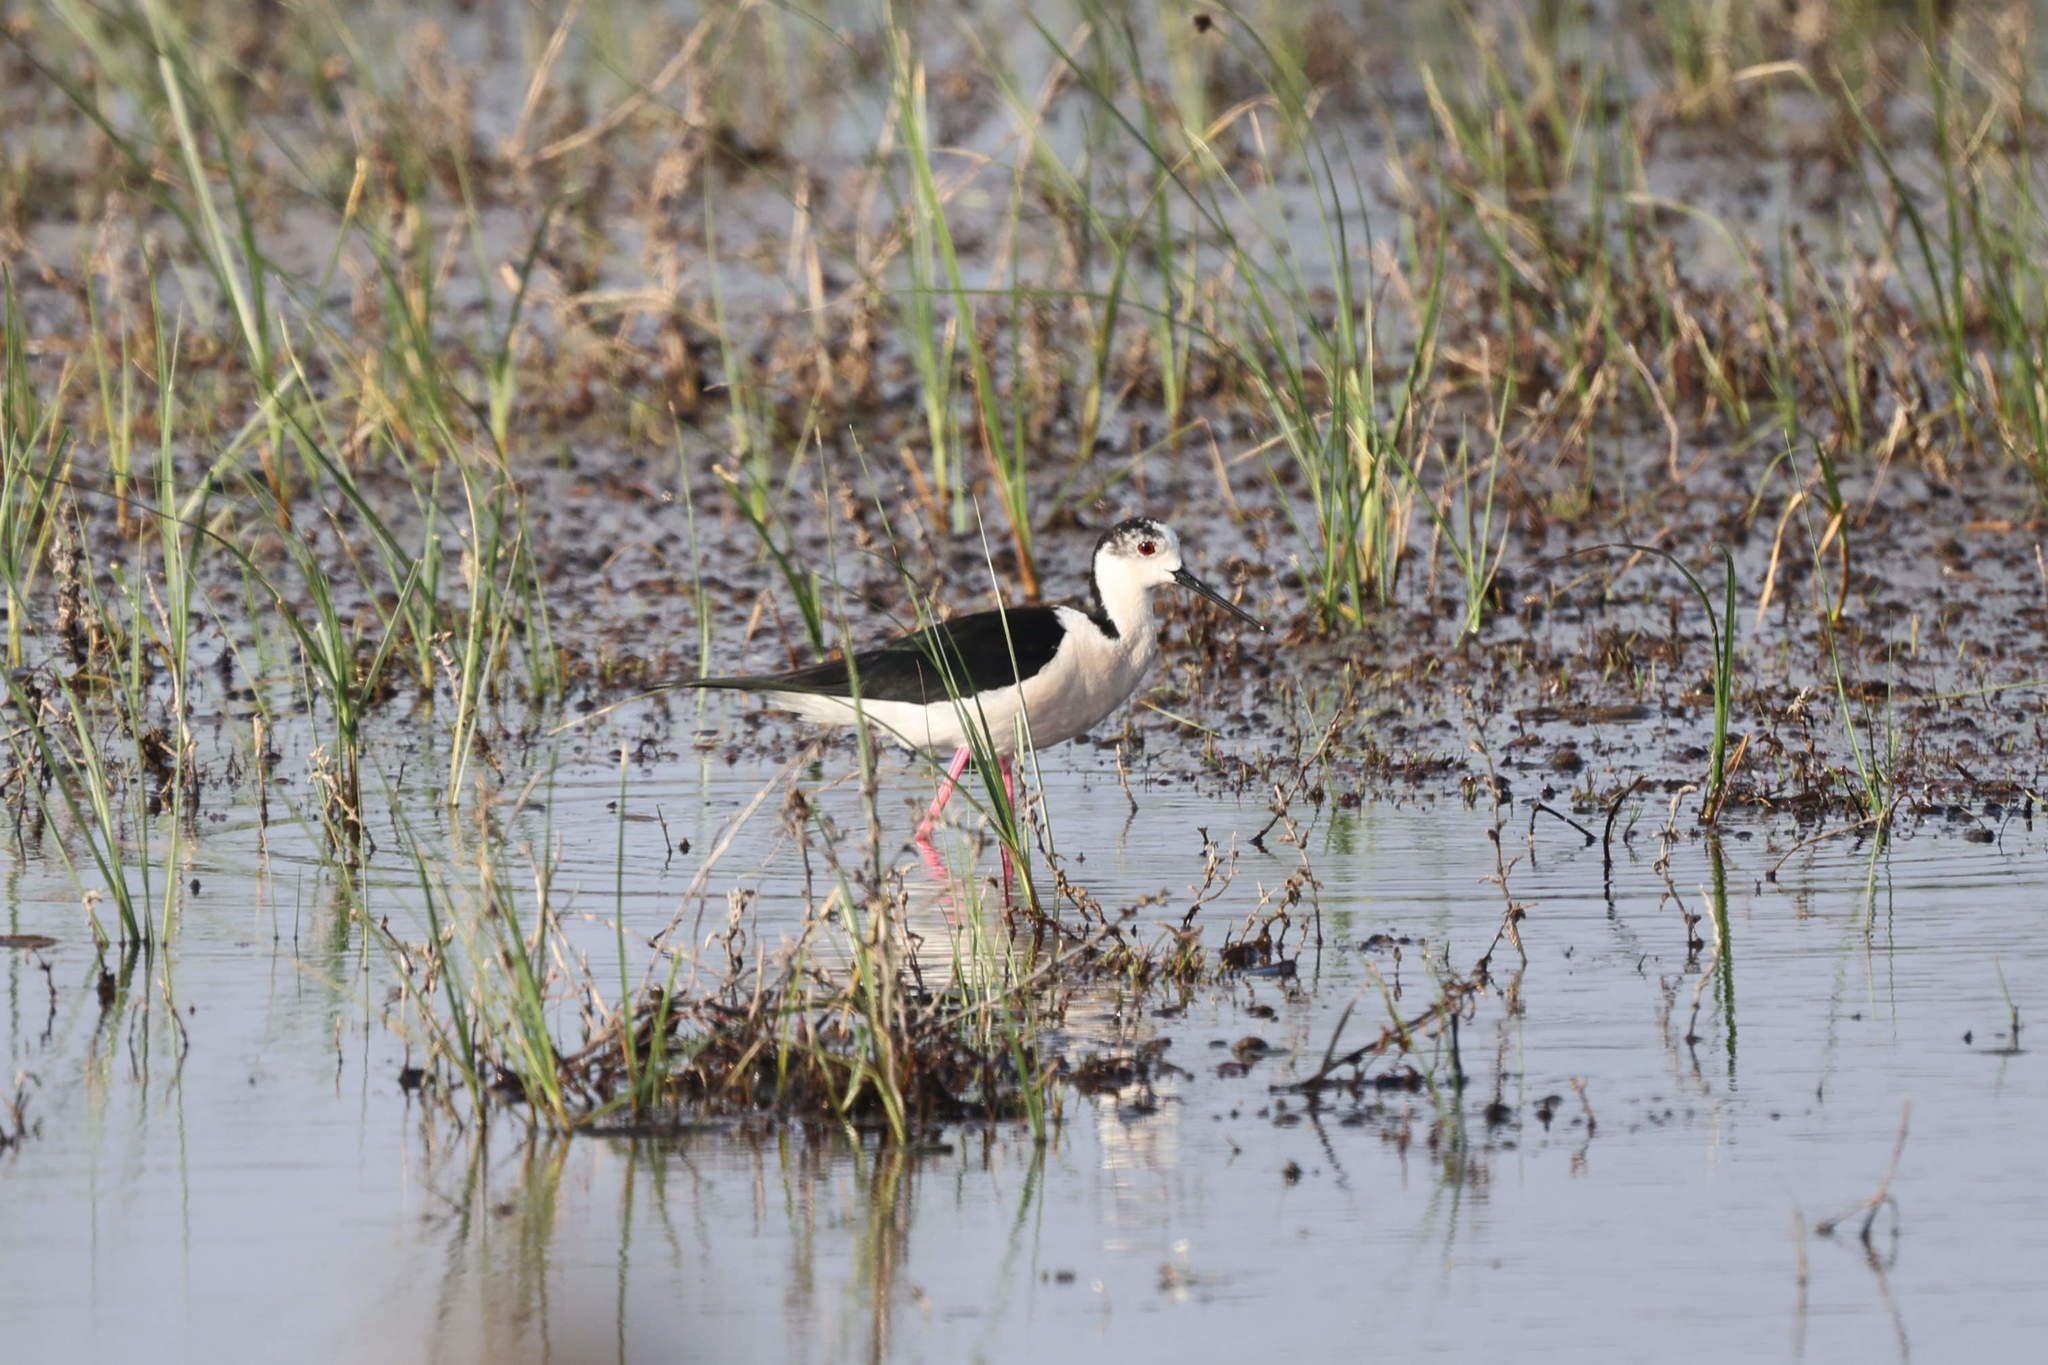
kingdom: Animalia
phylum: Chordata
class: Aves
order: Charadriiformes
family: Recurvirostridae
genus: Himantopus
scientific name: Himantopus himantopus
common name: Black-winged stilt
